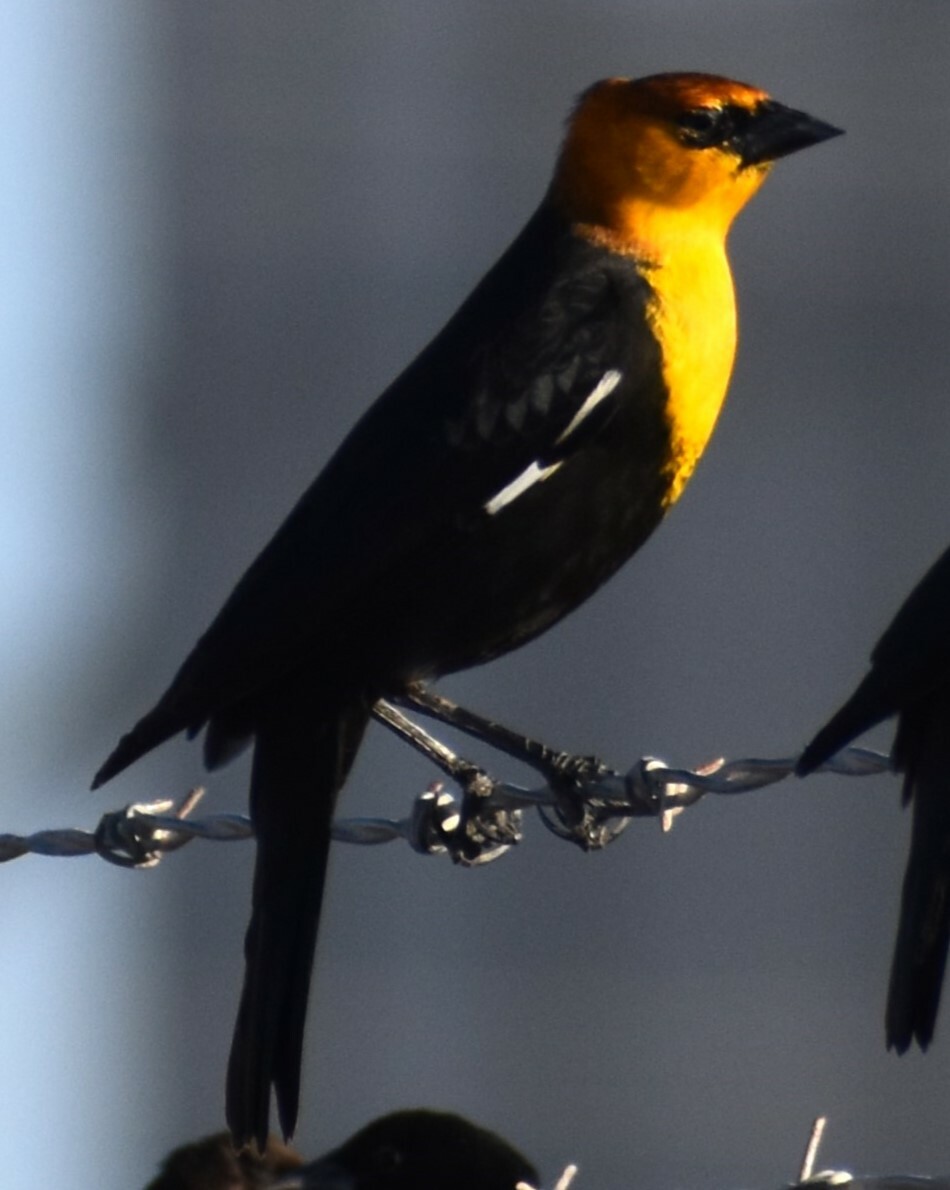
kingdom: Animalia
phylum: Chordata
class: Aves
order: Passeriformes
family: Icteridae
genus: Xanthocephalus
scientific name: Xanthocephalus xanthocephalus
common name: Yellow-headed blackbird
